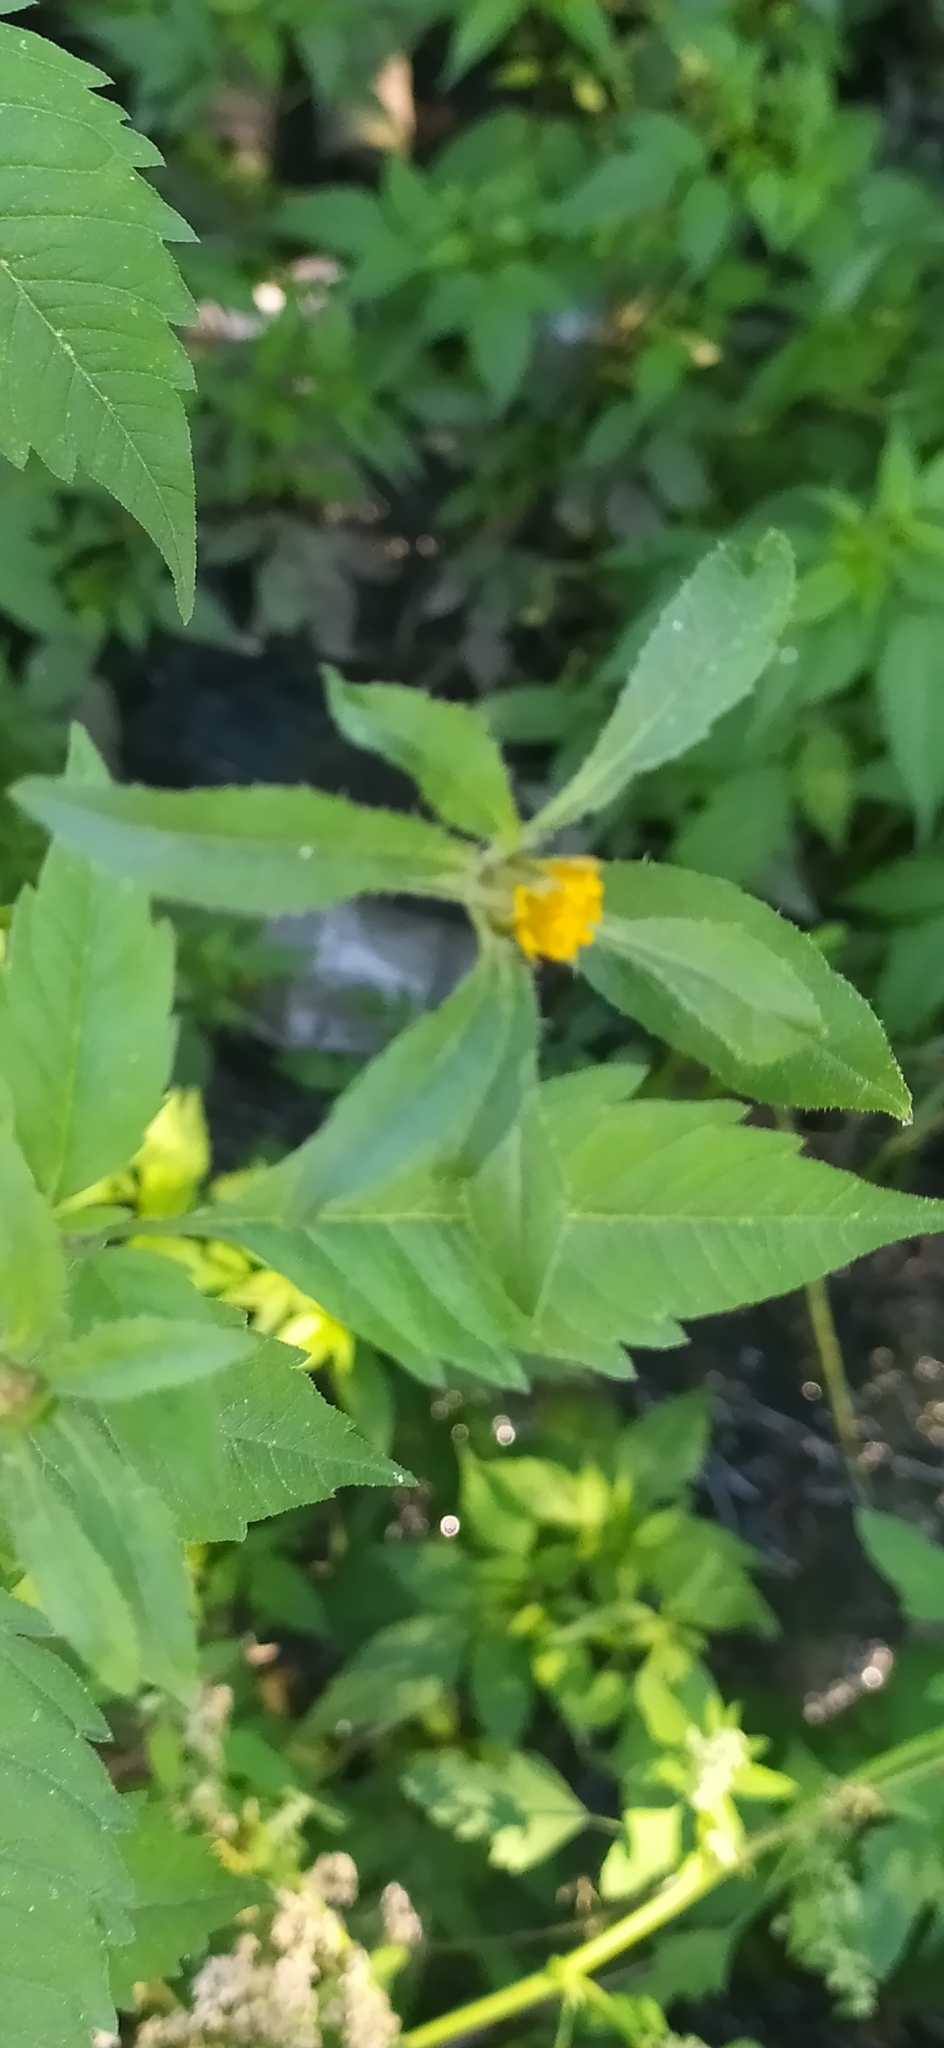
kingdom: Plantae
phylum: Tracheophyta
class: Magnoliopsida
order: Asterales
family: Asteraceae
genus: Bidens
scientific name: Bidens frondosa
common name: Beggarticks
